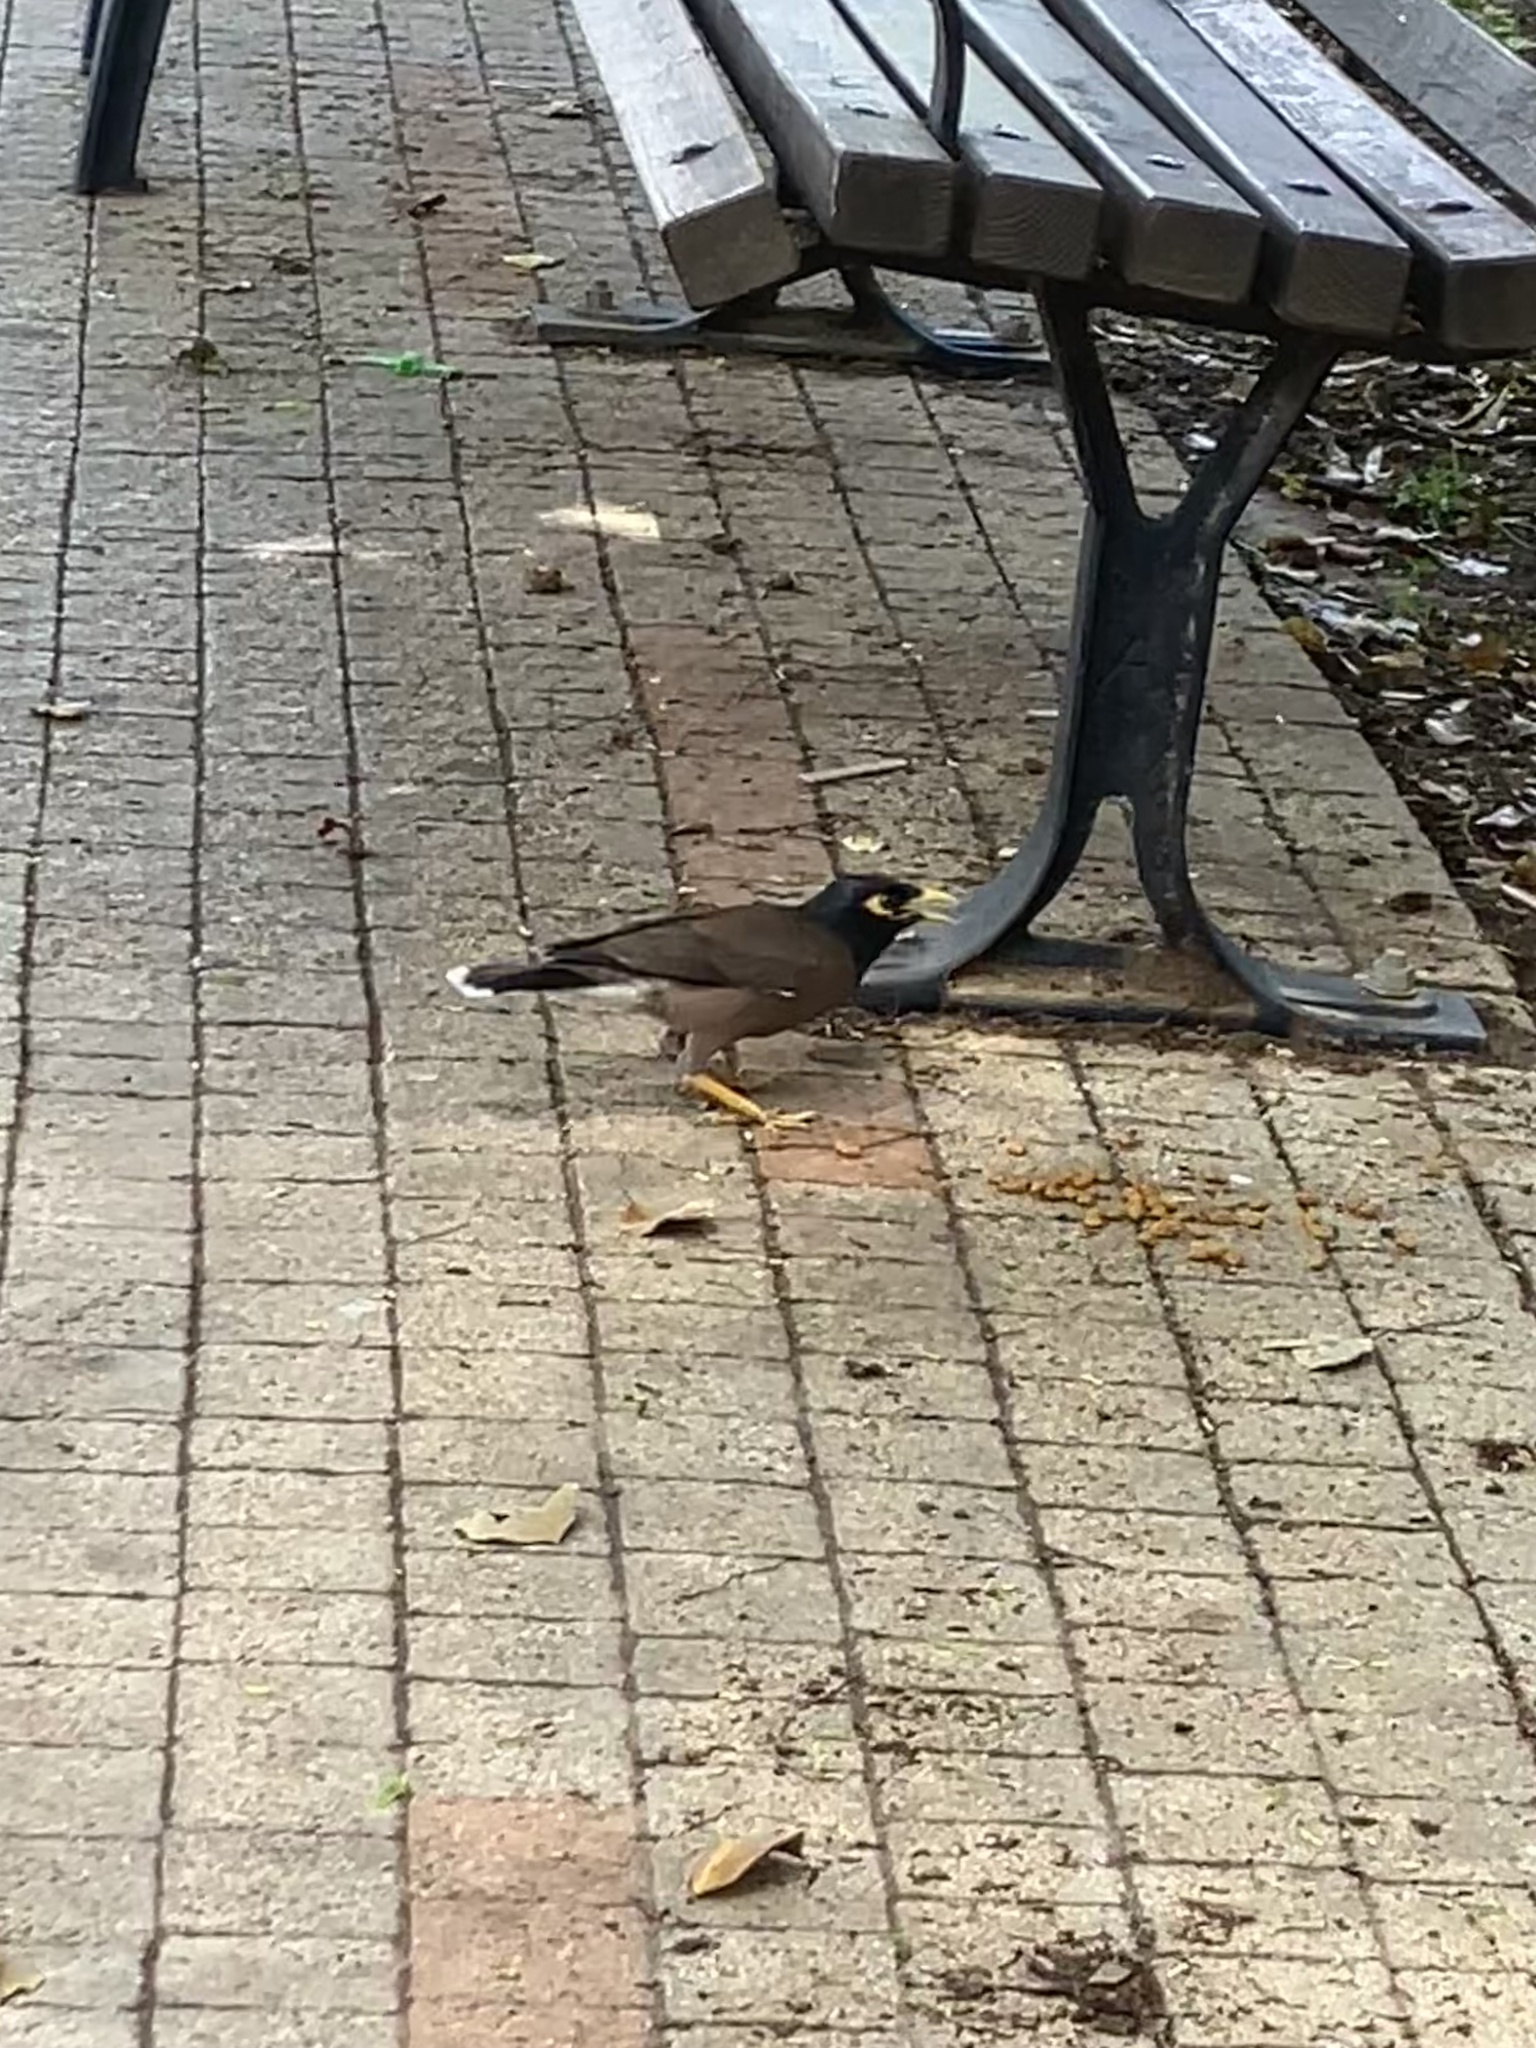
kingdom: Animalia
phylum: Chordata
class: Aves
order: Passeriformes
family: Sturnidae
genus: Acridotheres
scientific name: Acridotheres tristis
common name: Common myna
